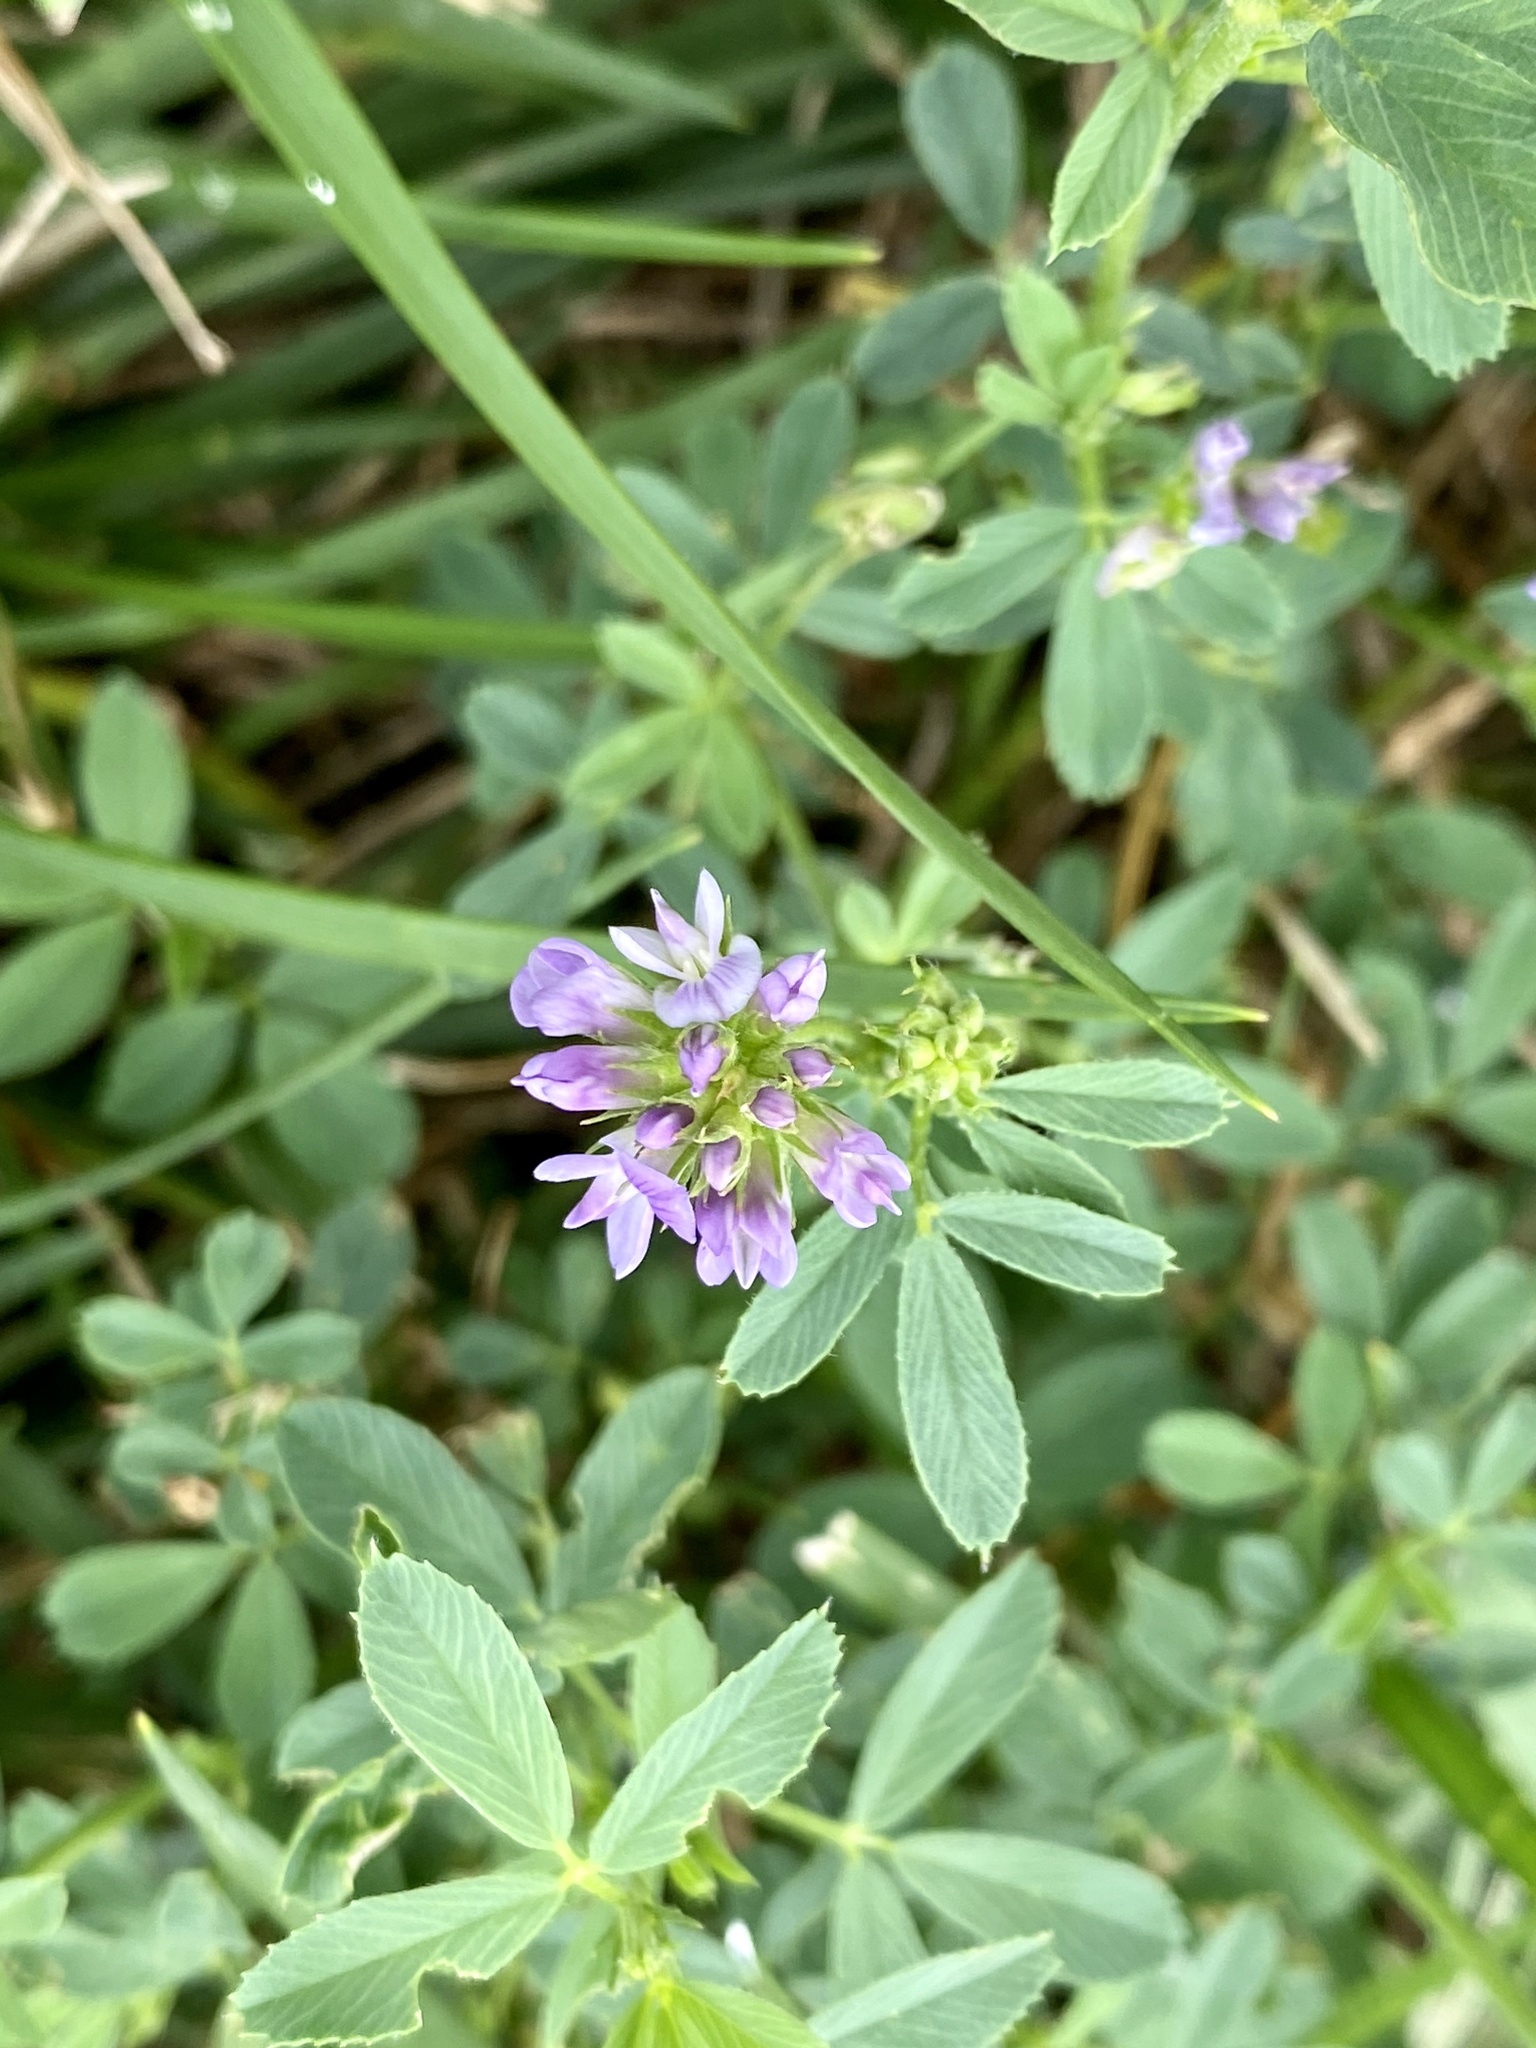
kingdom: Plantae
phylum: Tracheophyta
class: Magnoliopsida
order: Fabales
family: Fabaceae
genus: Medicago
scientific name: Medicago sativa
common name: Alfalfa
